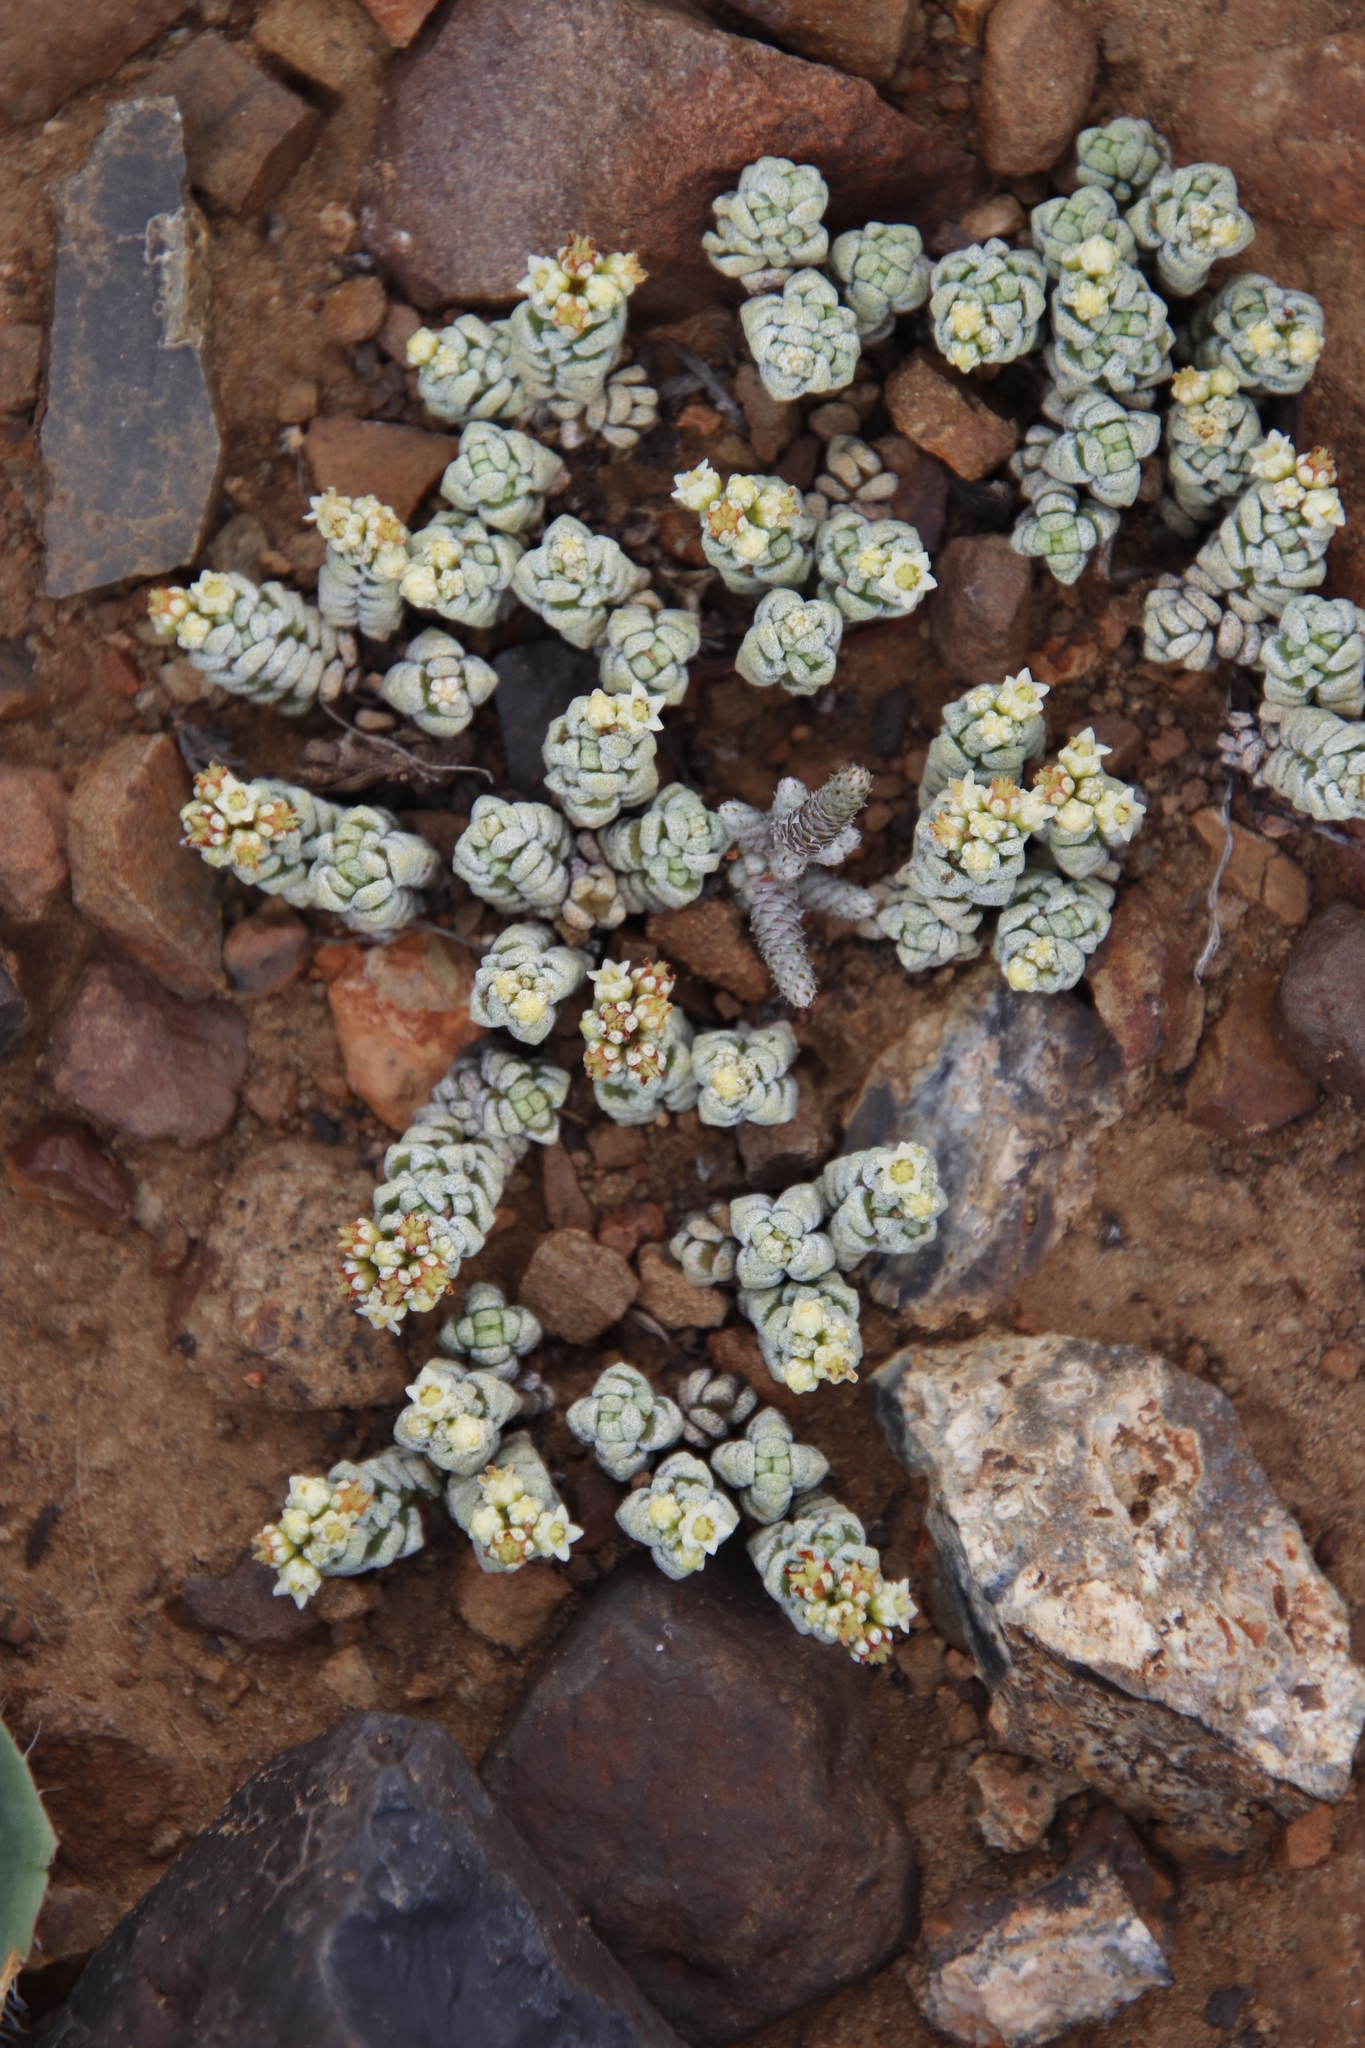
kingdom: Plantae
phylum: Tracheophyta
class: Magnoliopsida
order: Saxifragales
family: Crassulaceae
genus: Crassula
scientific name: Crassula corallina
